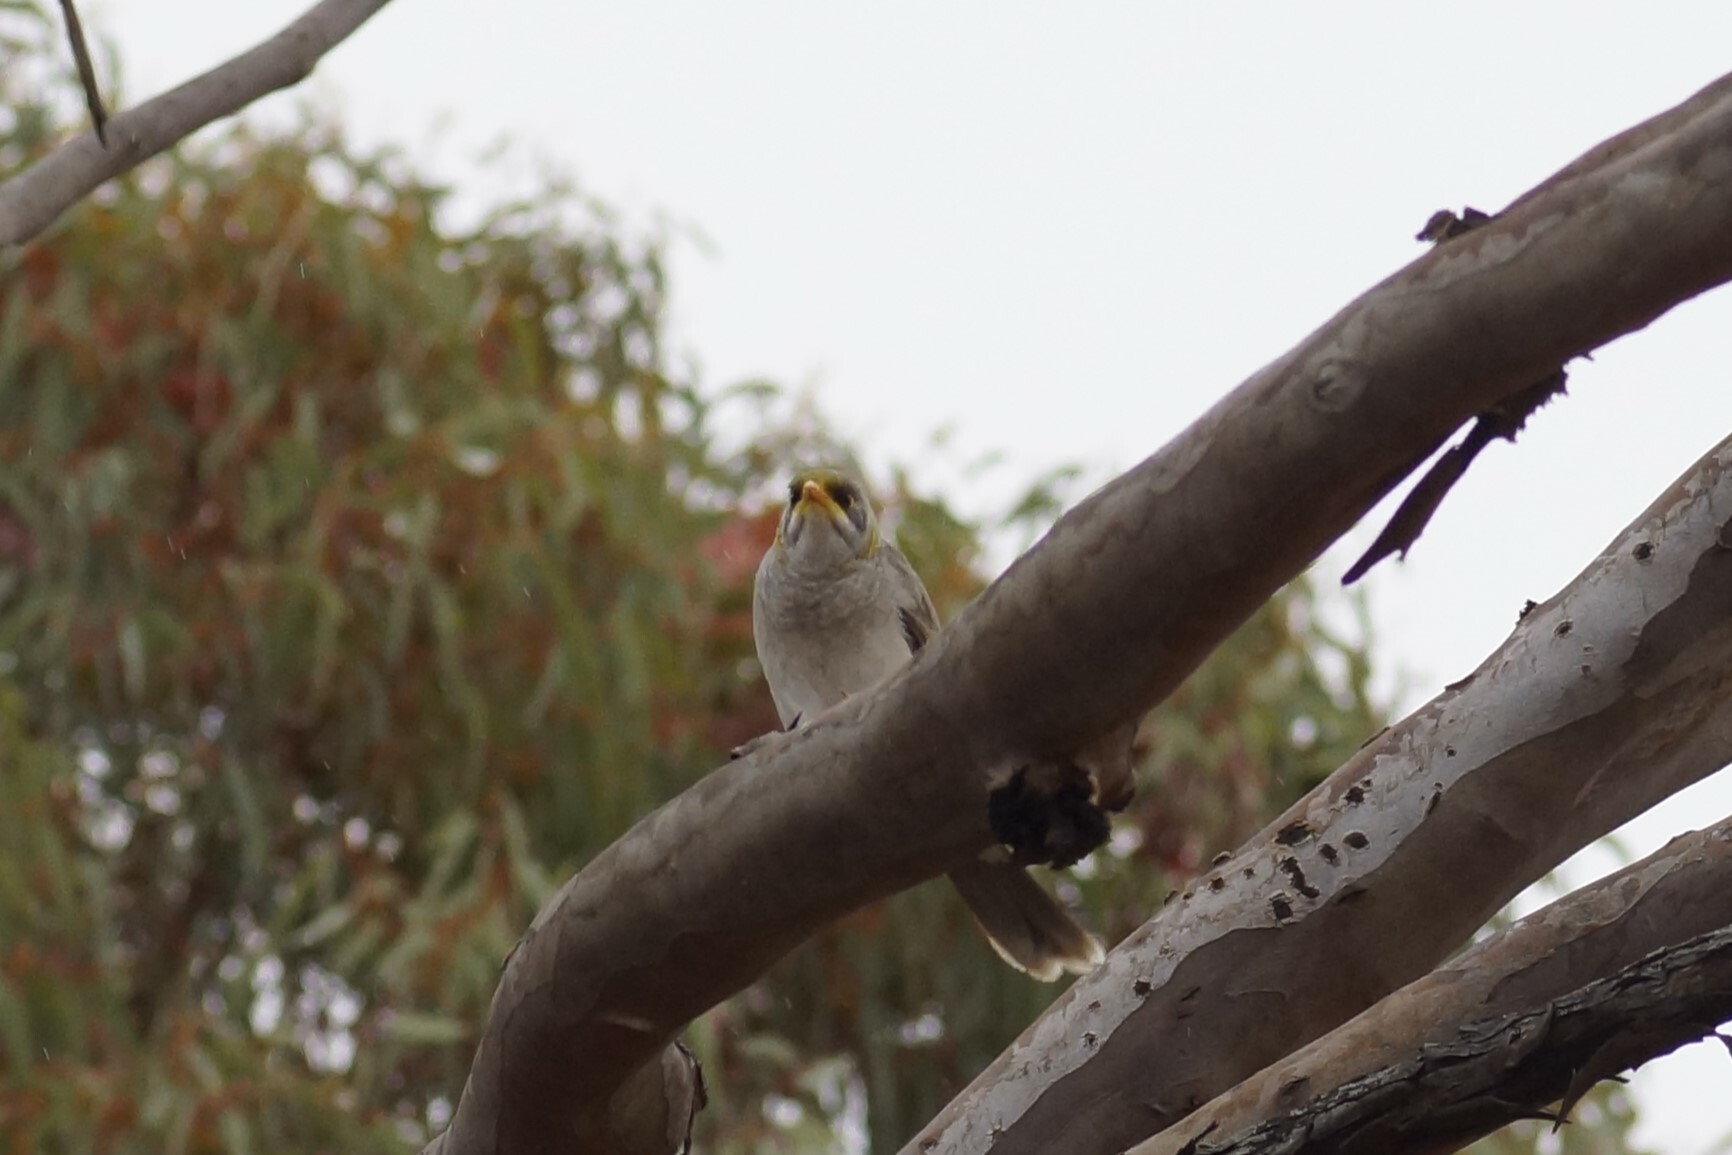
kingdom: Animalia
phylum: Chordata
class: Aves
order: Passeriformes
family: Meliphagidae
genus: Manorina
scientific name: Manorina flavigula
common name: Yellow-throated miner
